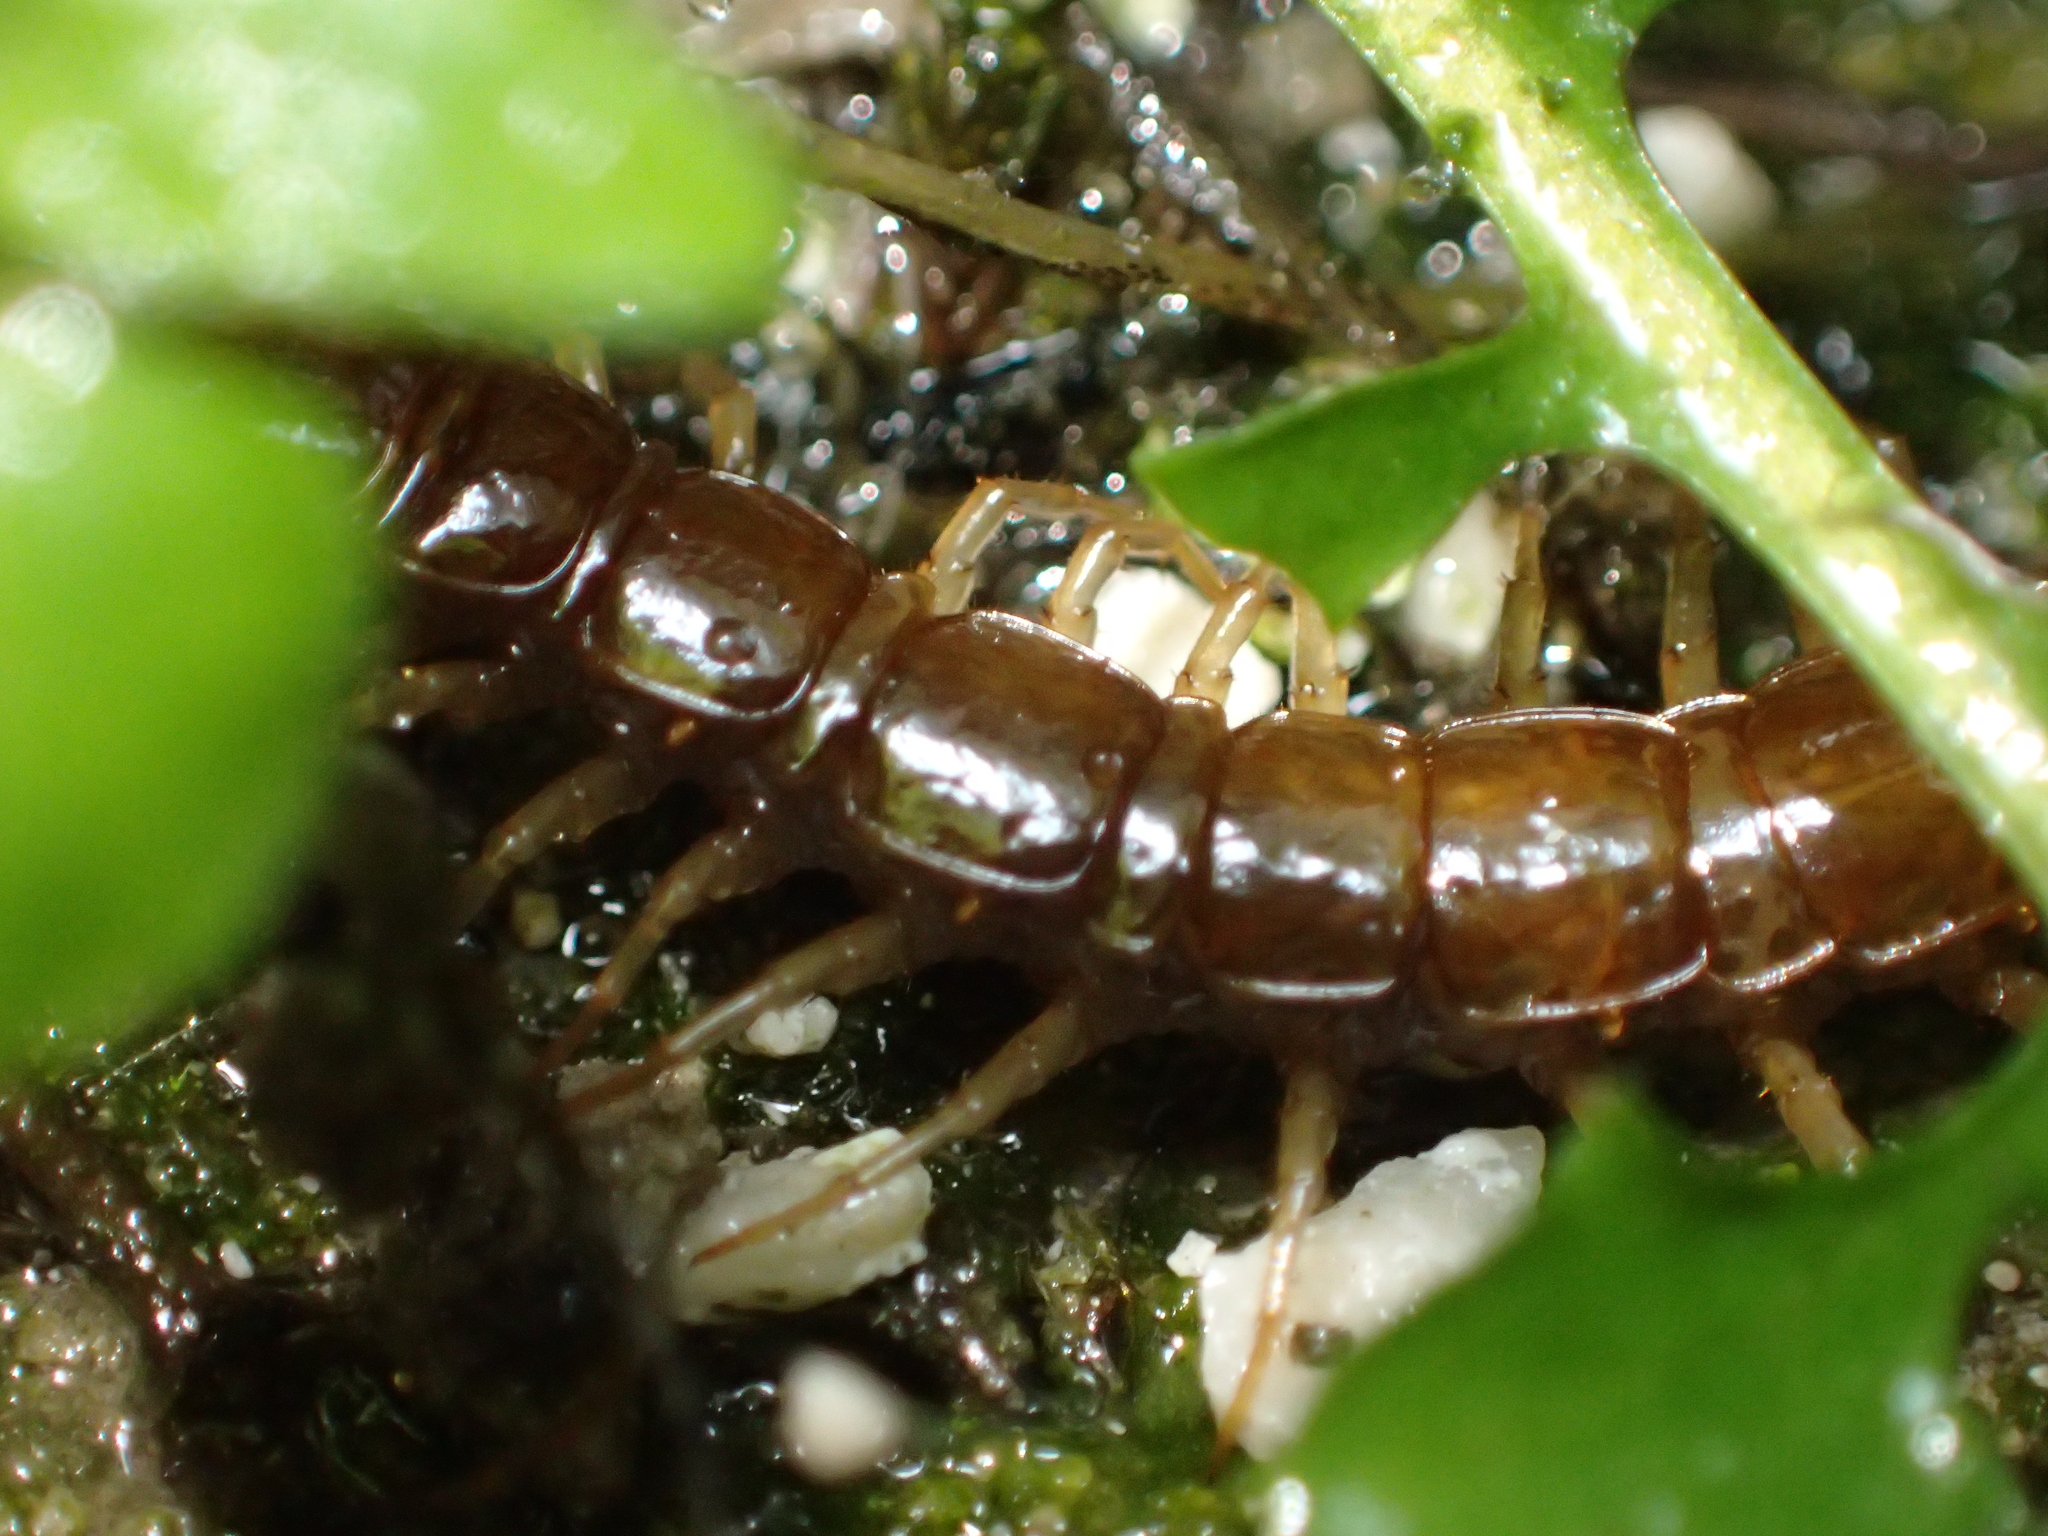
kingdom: Animalia
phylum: Arthropoda
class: Chilopoda
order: Lithobiomorpha
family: Lithobiidae
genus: Lithobius
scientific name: Lithobius forficatus
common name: Centipede
